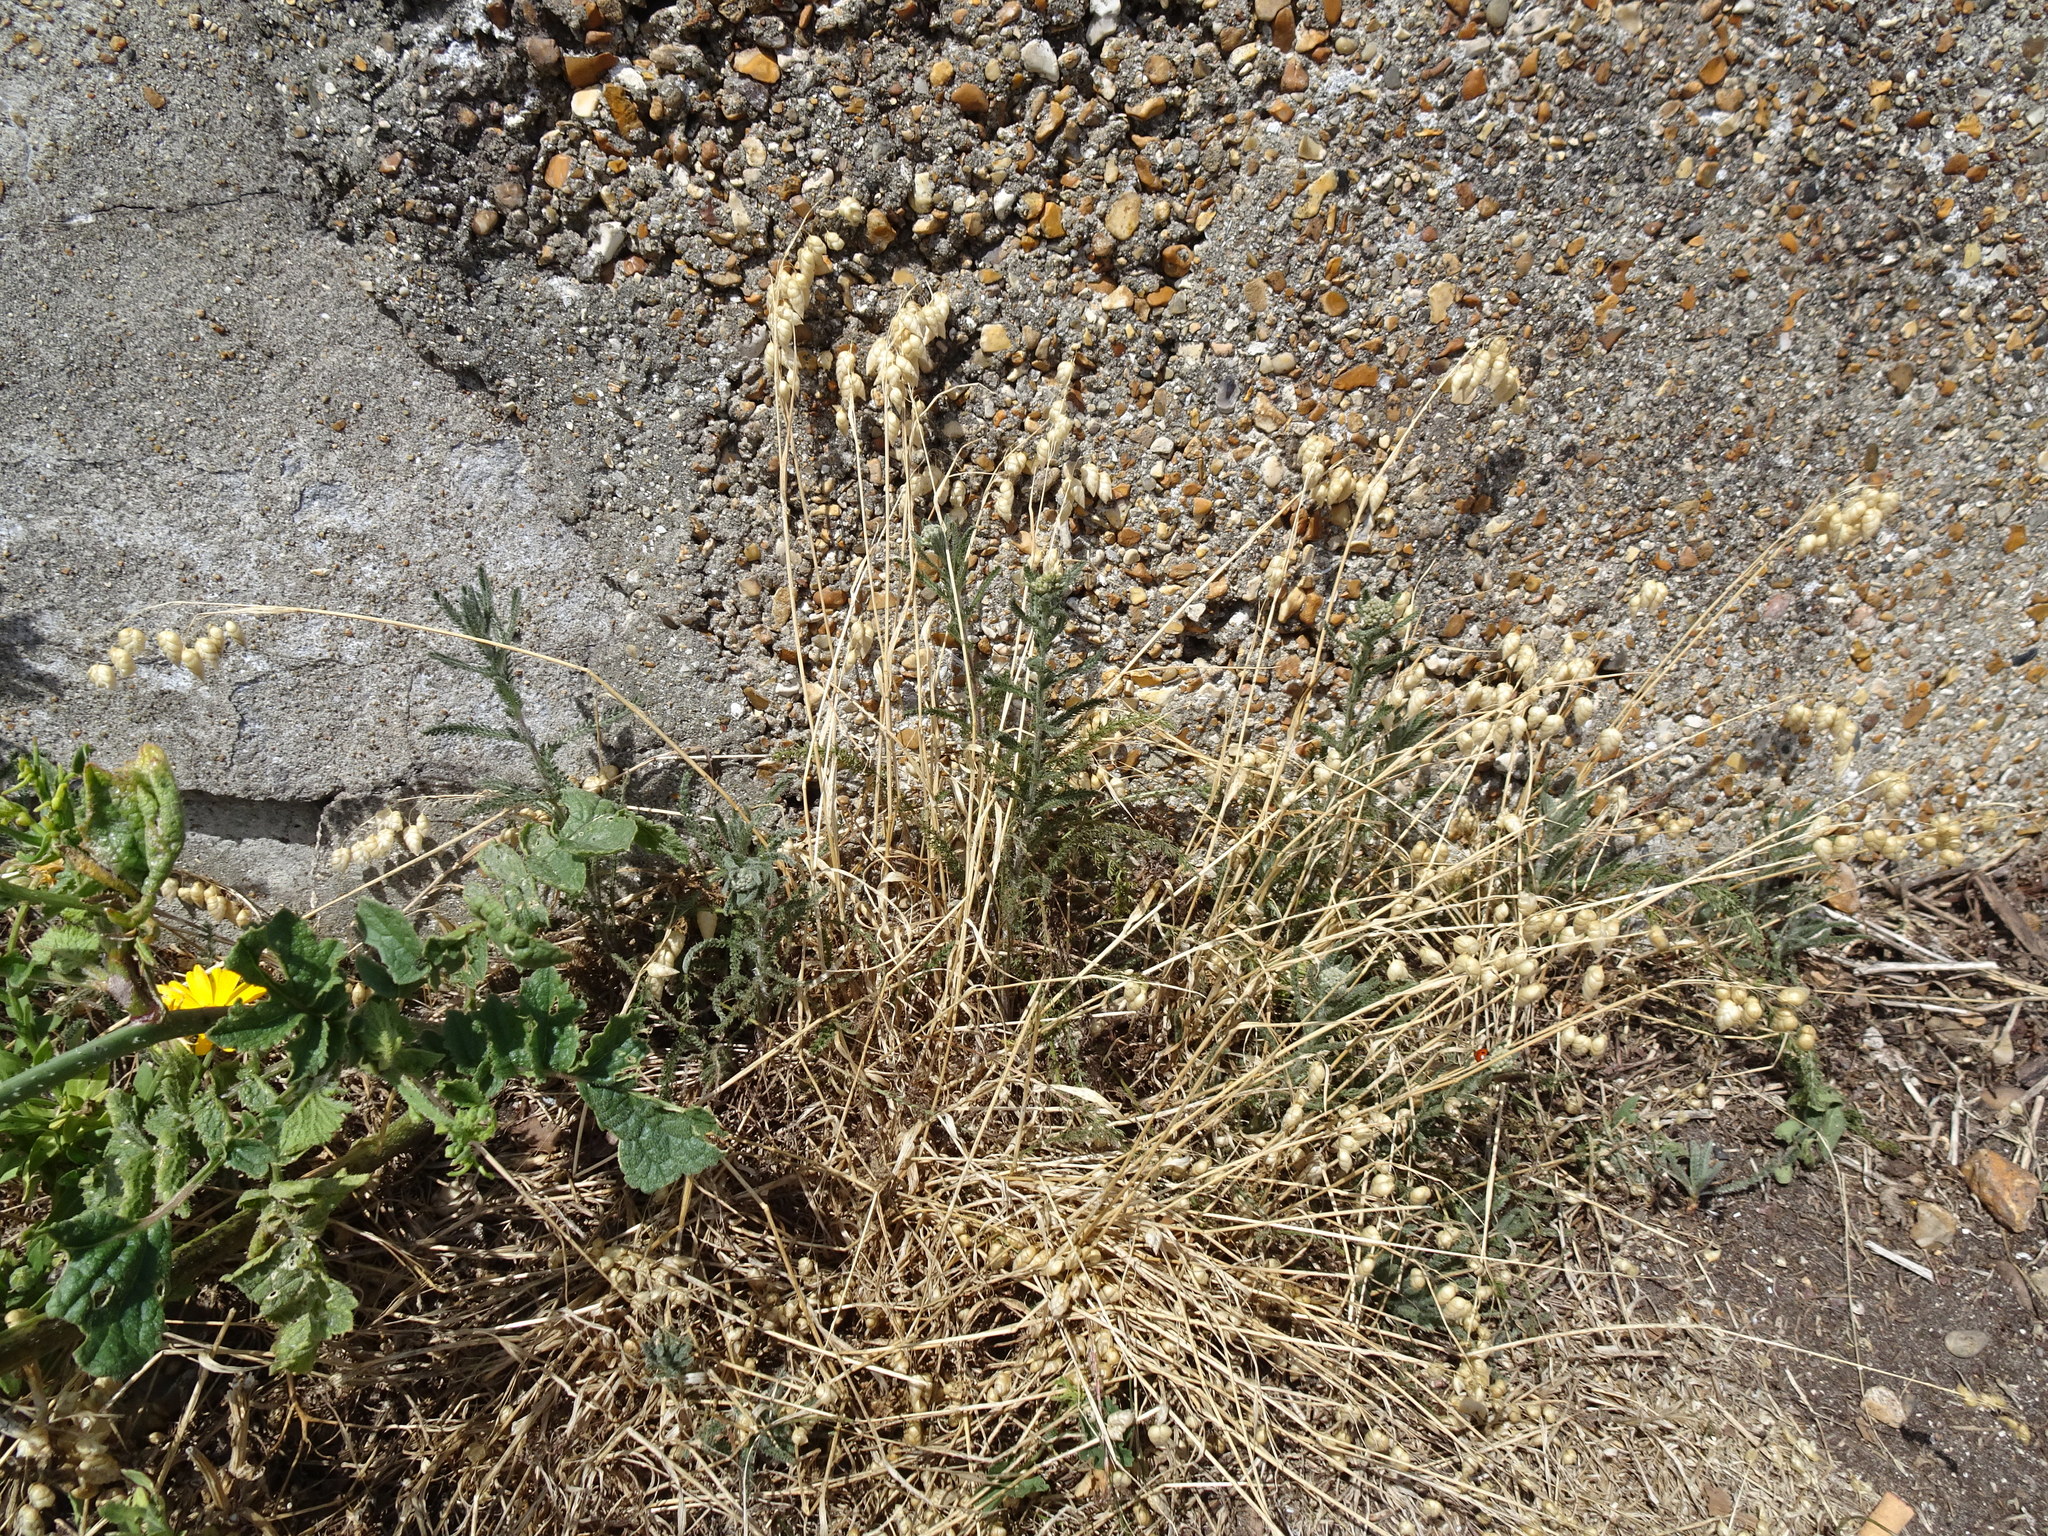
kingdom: Plantae
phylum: Tracheophyta
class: Liliopsida
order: Poales
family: Poaceae
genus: Briza
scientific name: Briza maxima
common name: Big quakinggrass
